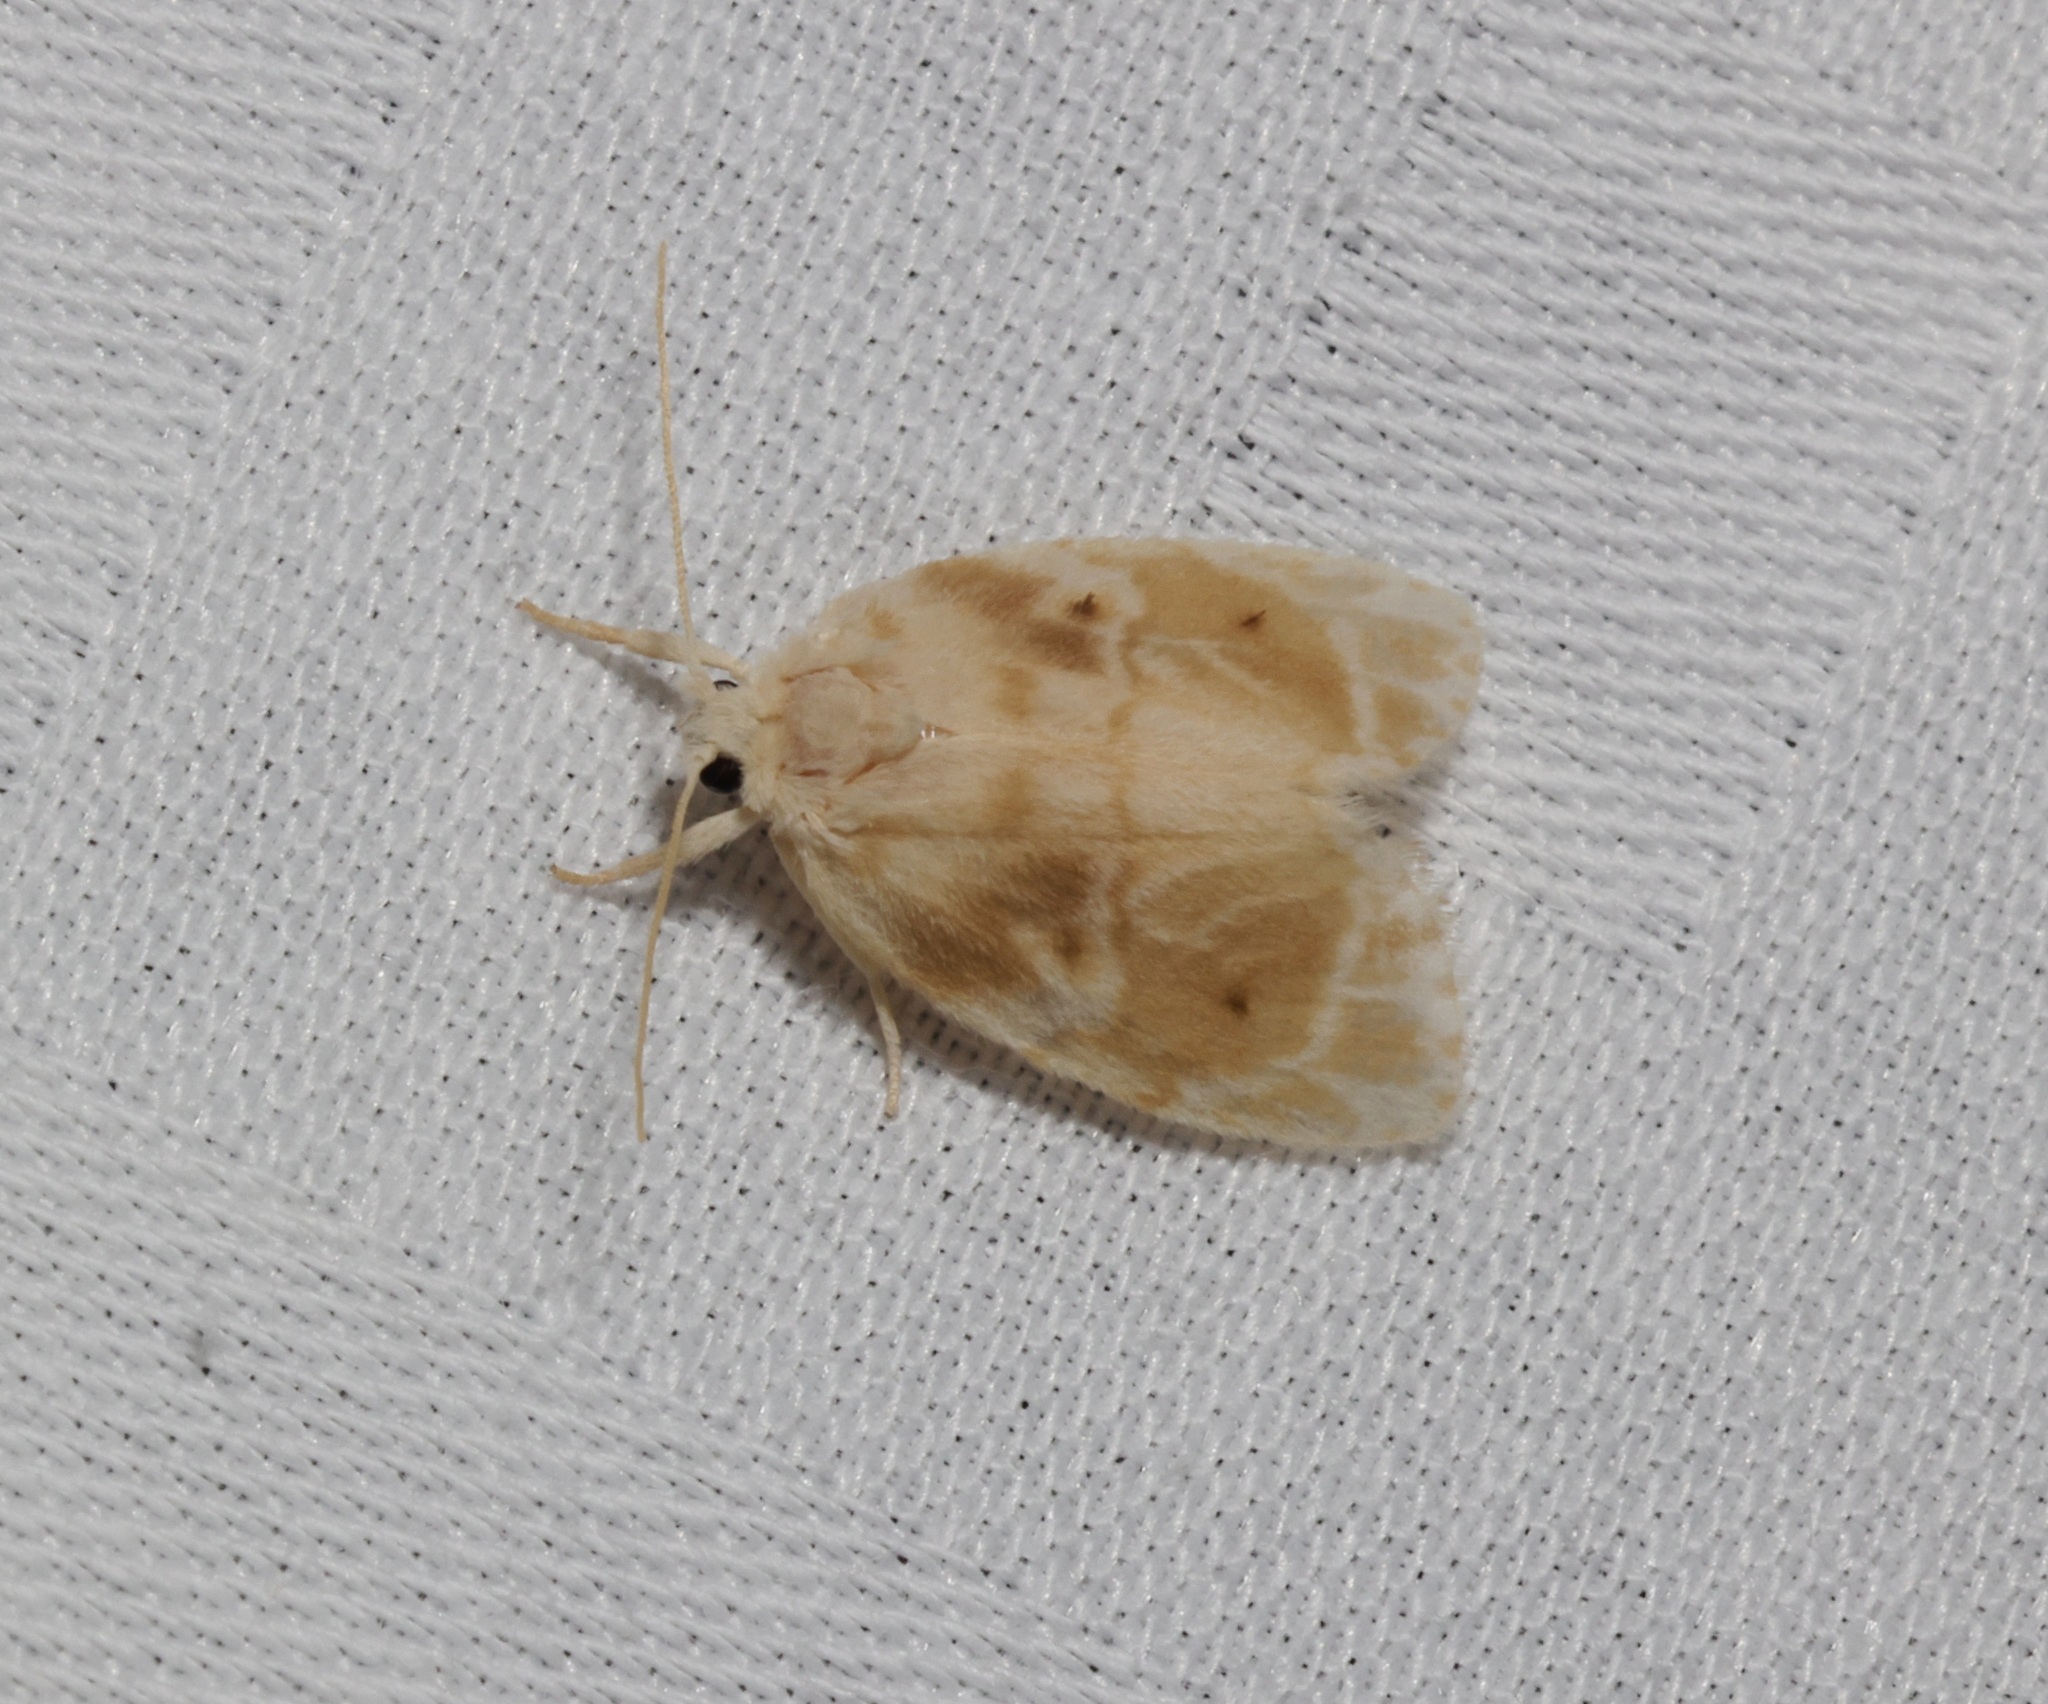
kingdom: Animalia
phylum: Arthropoda
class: Insecta
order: Lepidoptera
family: Erebidae
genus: Schistophleps
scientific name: Schistophleps bipuncta
